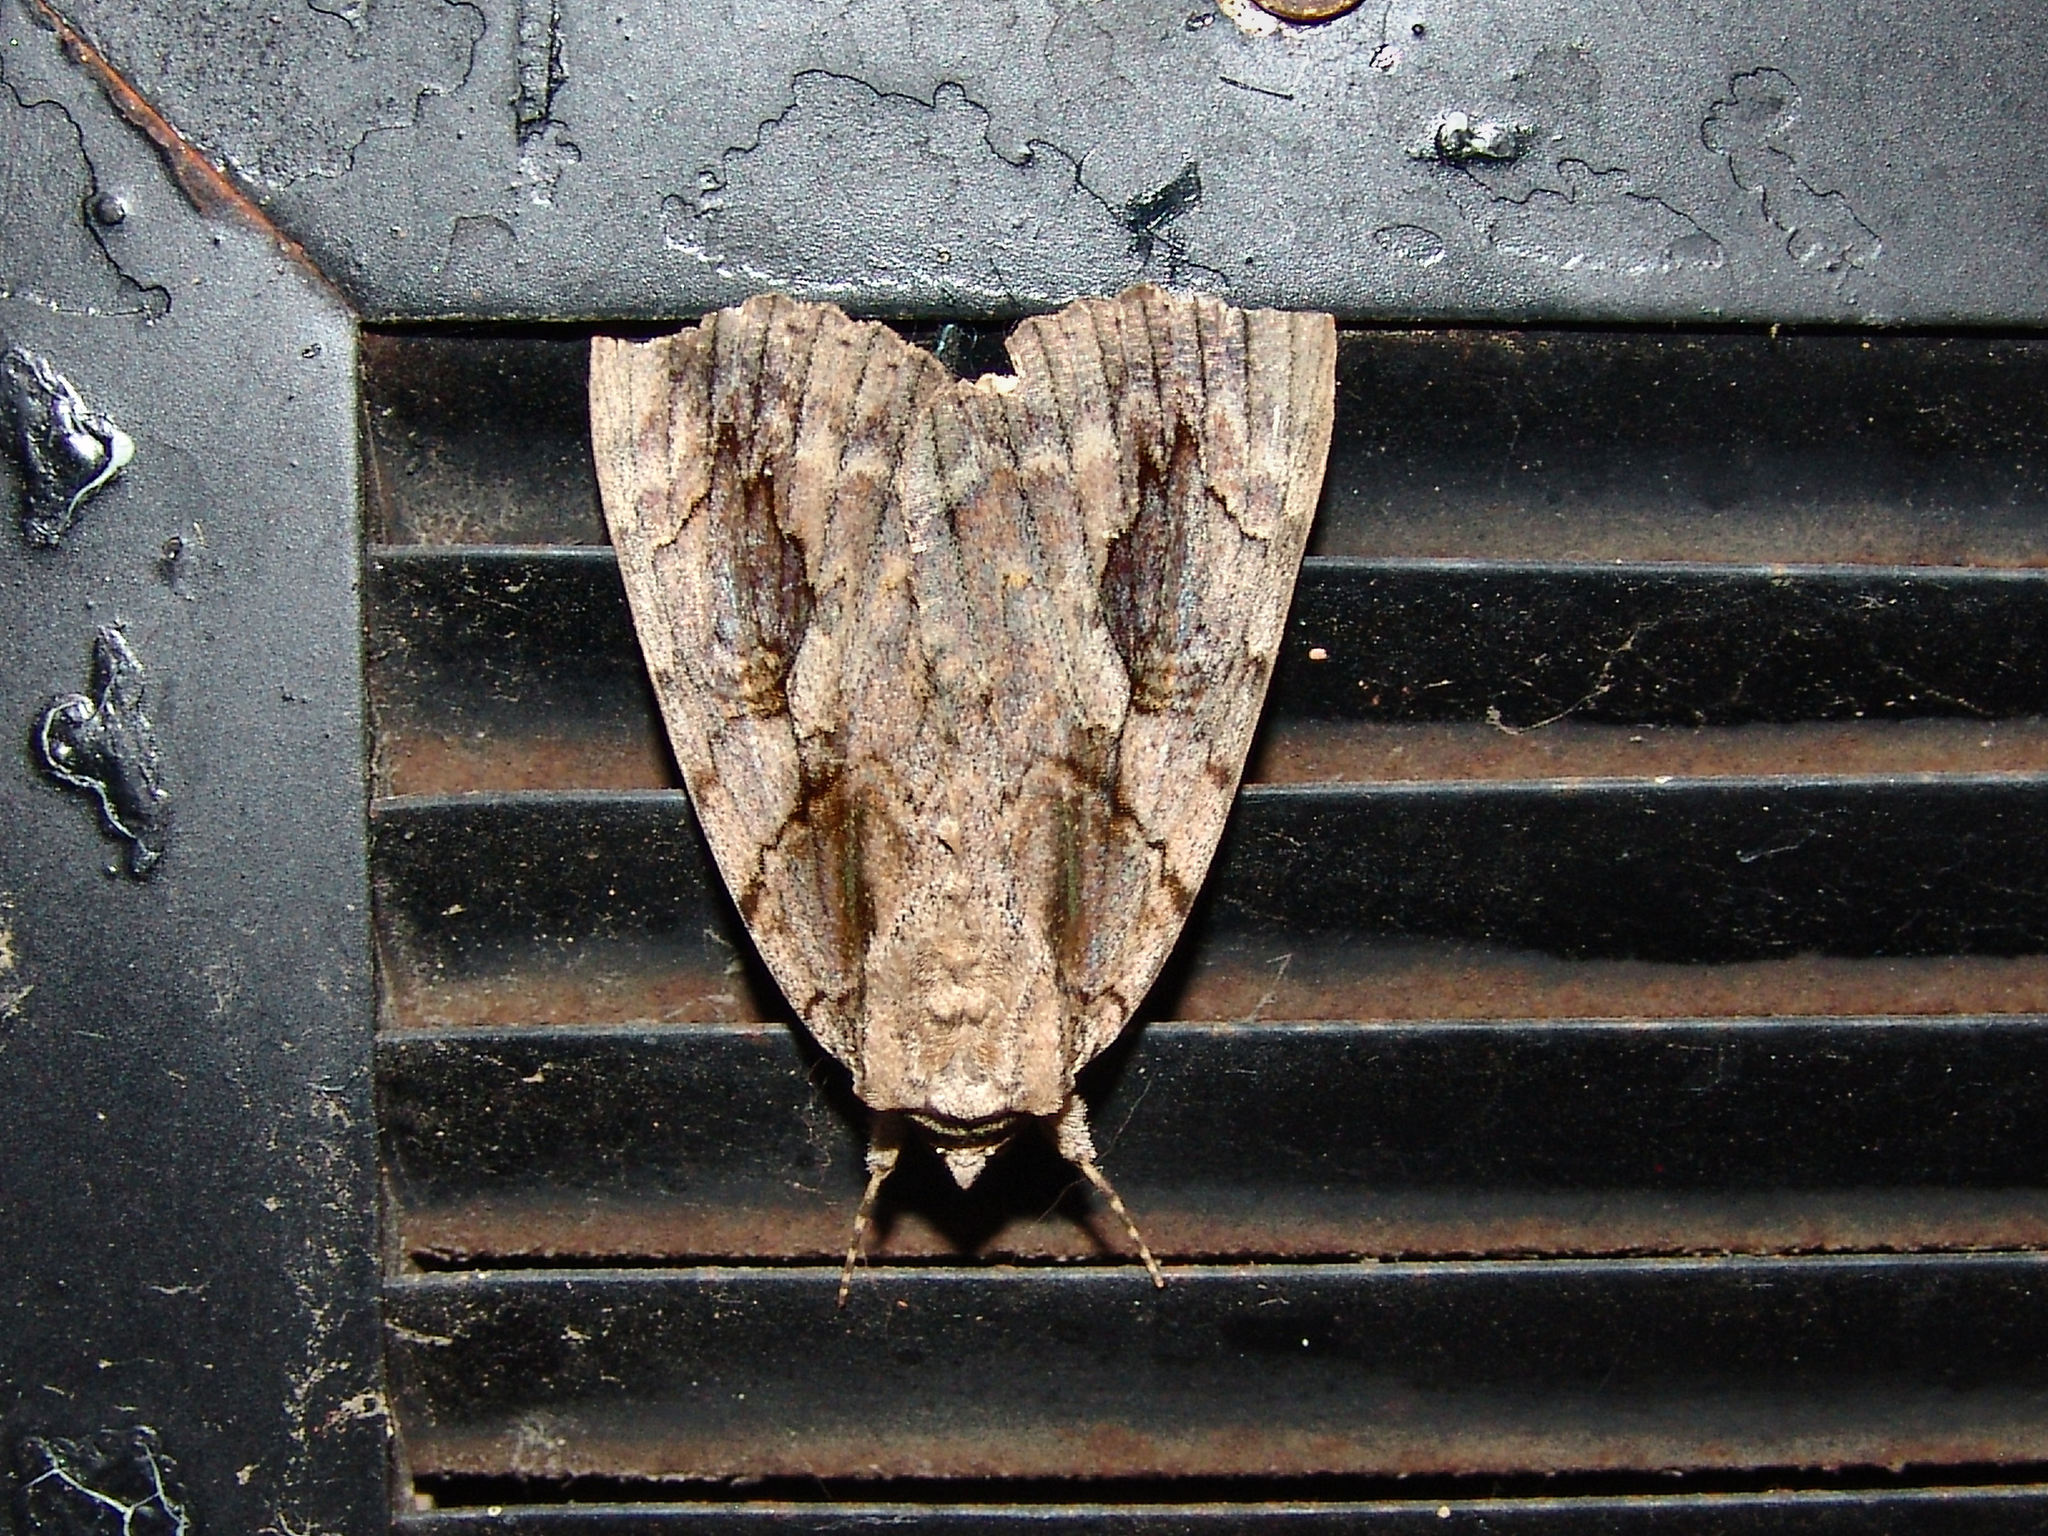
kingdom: Animalia
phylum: Arthropoda
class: Insecta
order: Lepidoptera
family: Erebidae
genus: Catocala
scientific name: Catocala amatrix
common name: Sweetheart underwing
